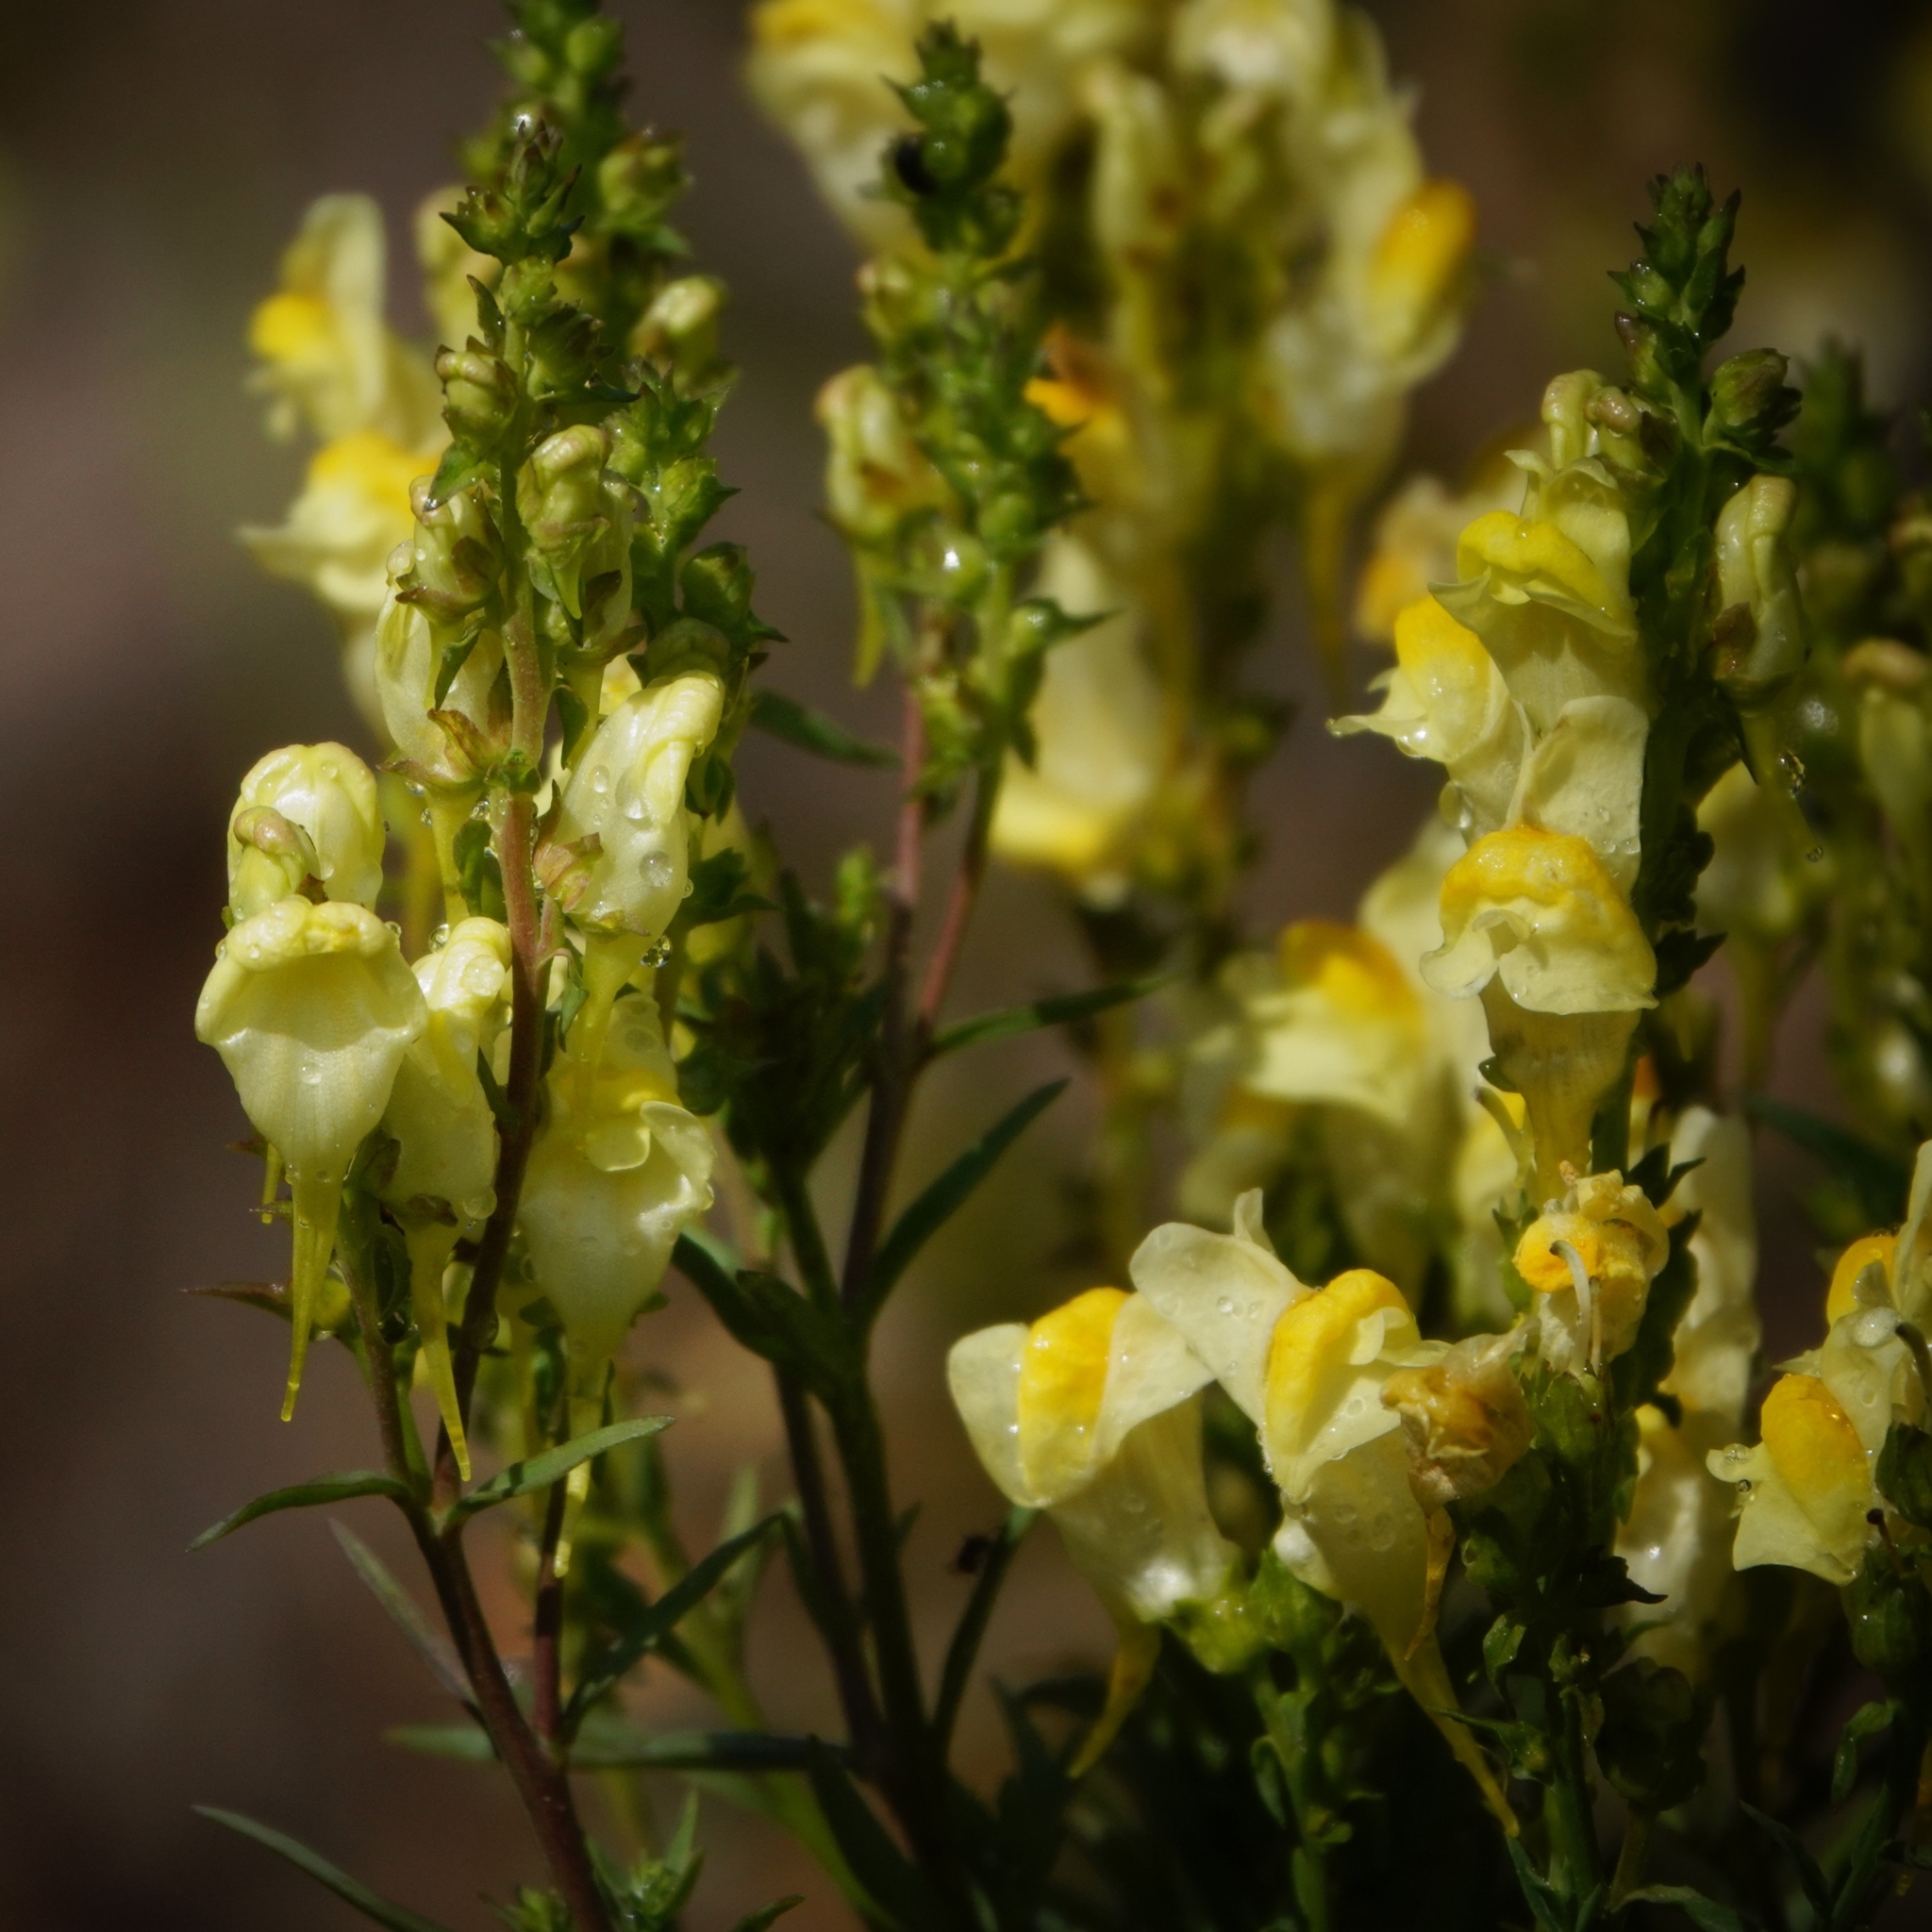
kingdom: Plantae
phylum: Tracheophyta
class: Magnoliopsida
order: Lamiales
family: Plantaginaceae
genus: Linaria
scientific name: Linaria vulgaris
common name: Butter and eggs
